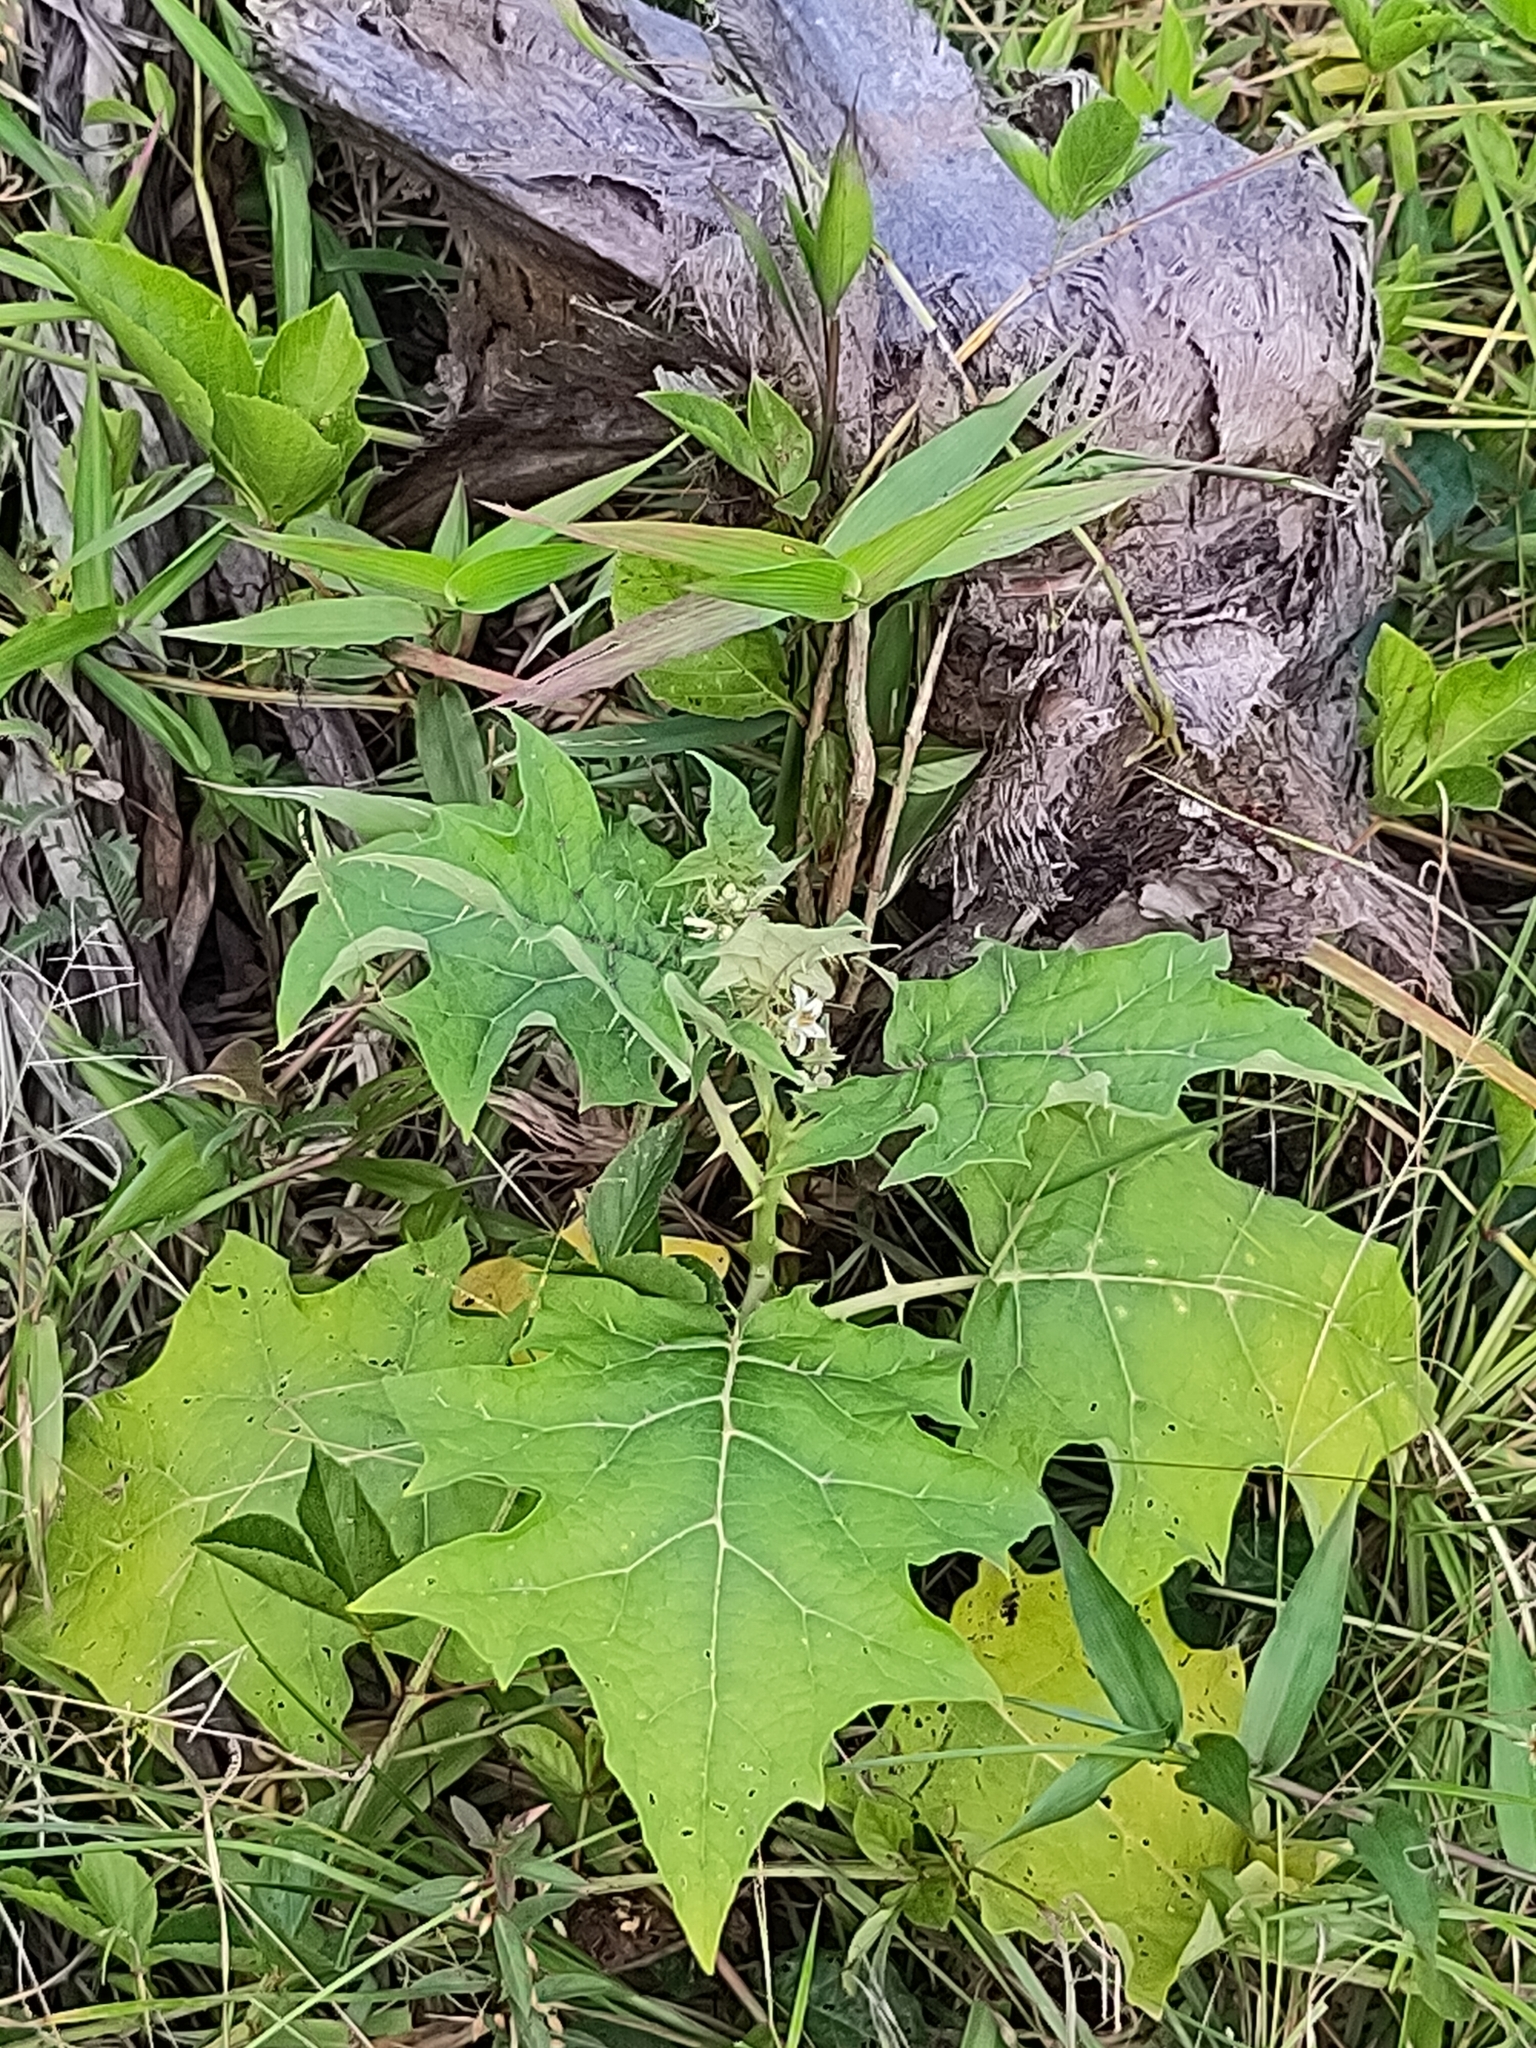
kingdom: Plantae
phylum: Tracheophyta
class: Magnoliopsida
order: Solanales
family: Solanaceae
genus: Solanum
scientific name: Solanum
